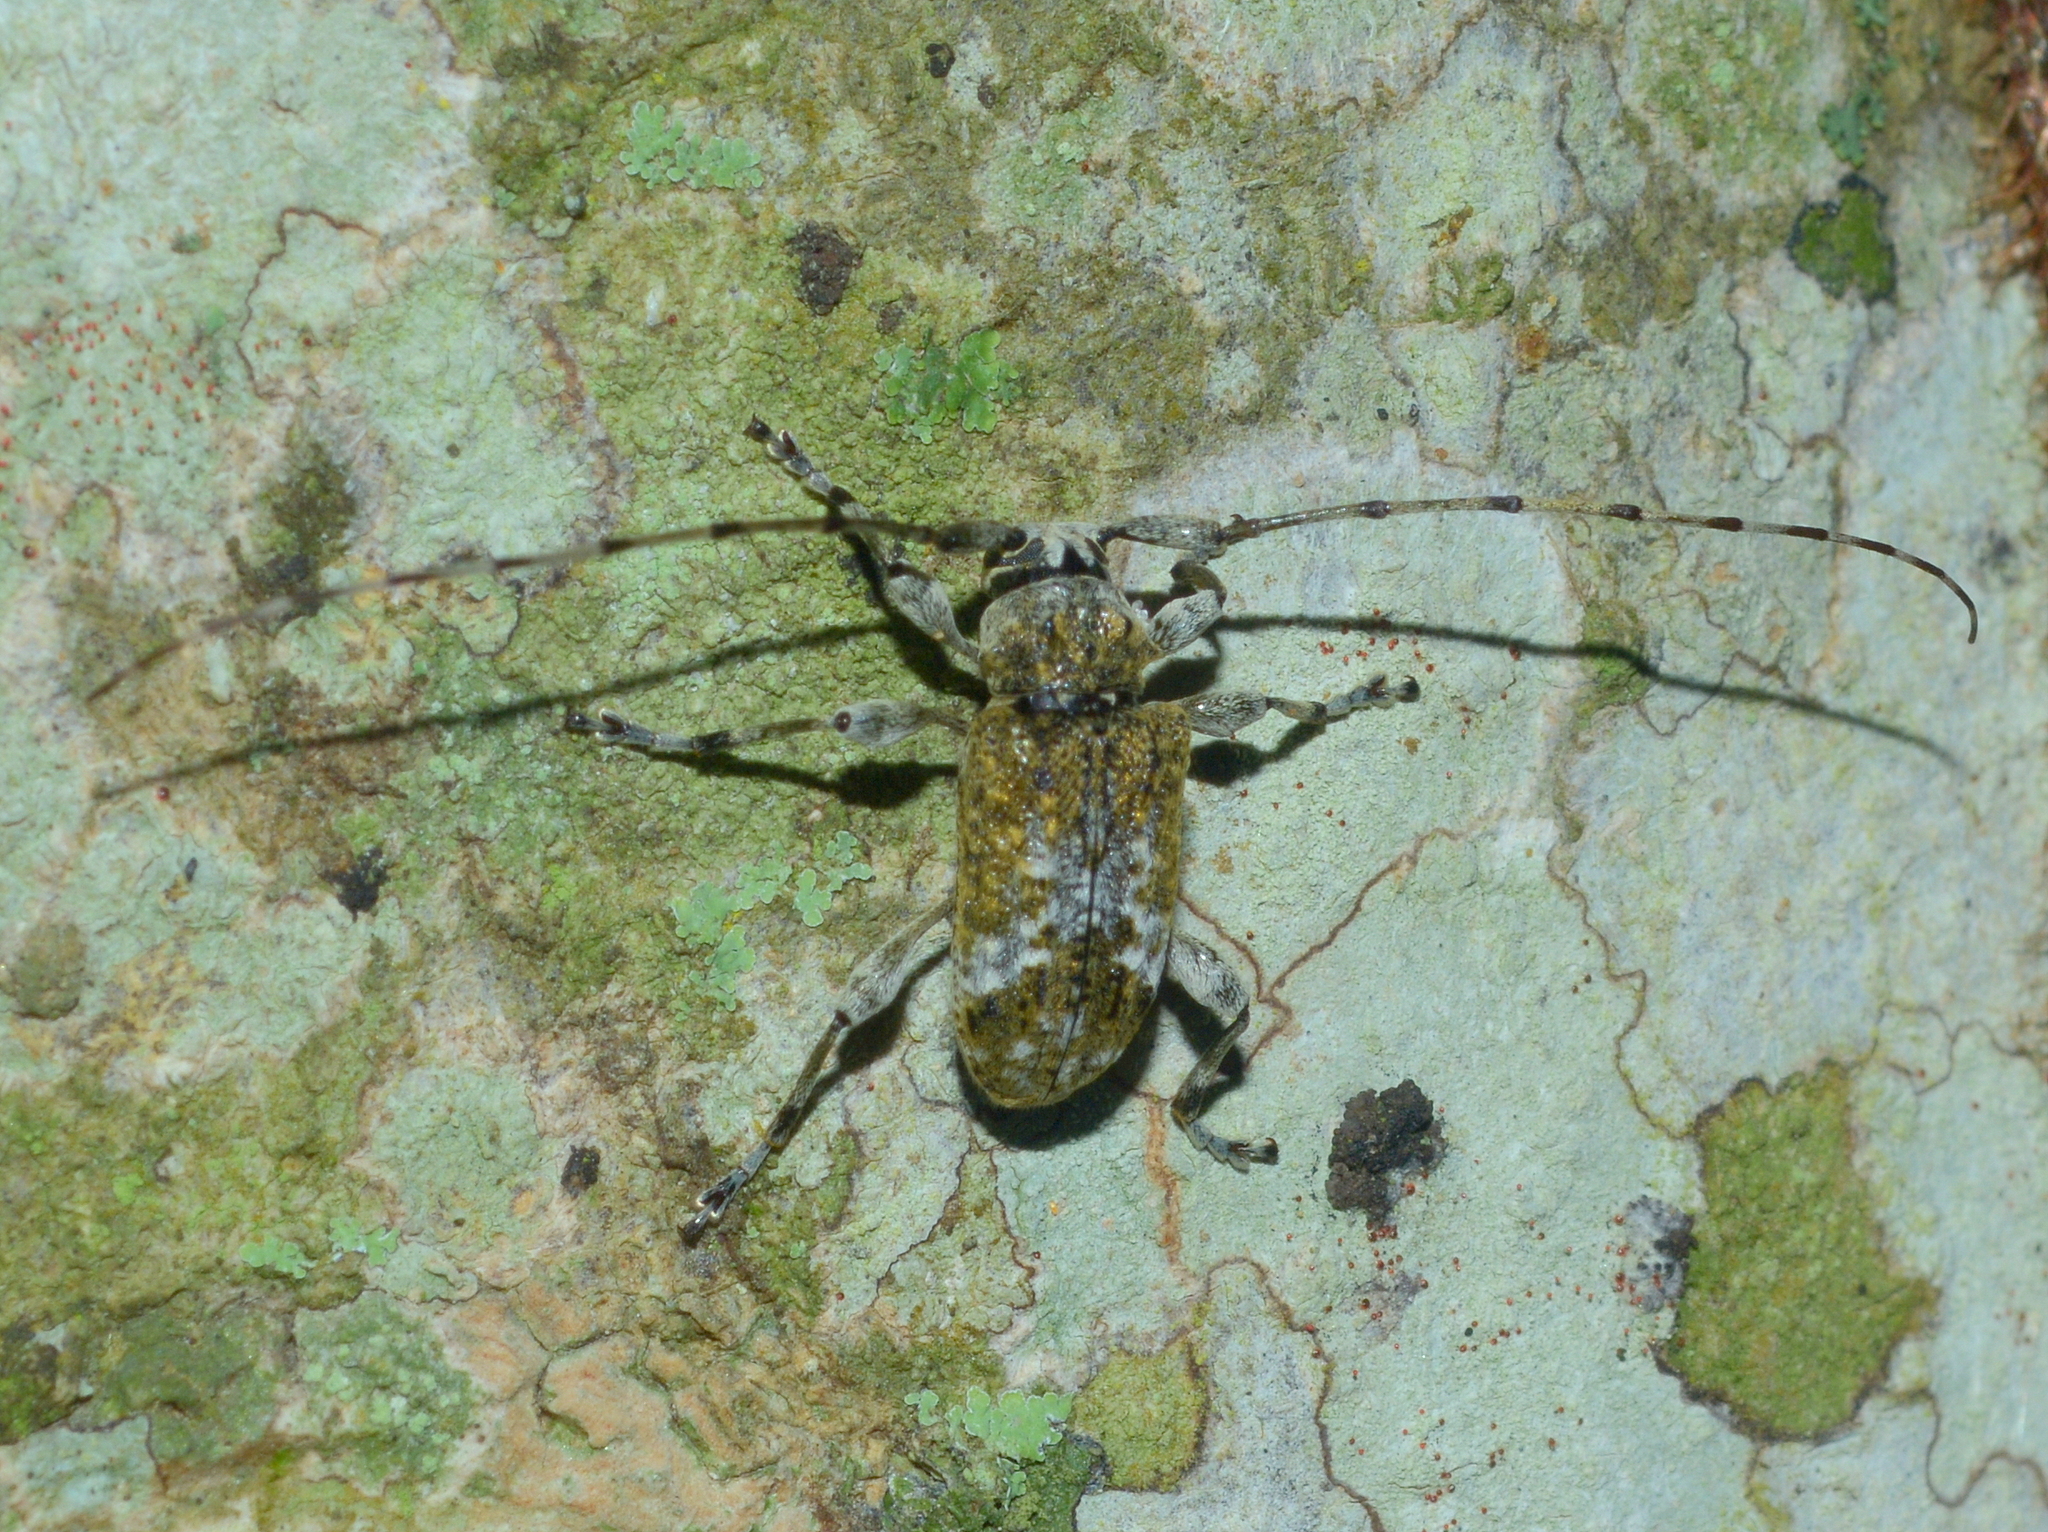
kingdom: Animalia
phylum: Arthropoda
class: Insecta
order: Coleoptera
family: Cerambycidae
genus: Exalphus
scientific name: Exalphus confusus
